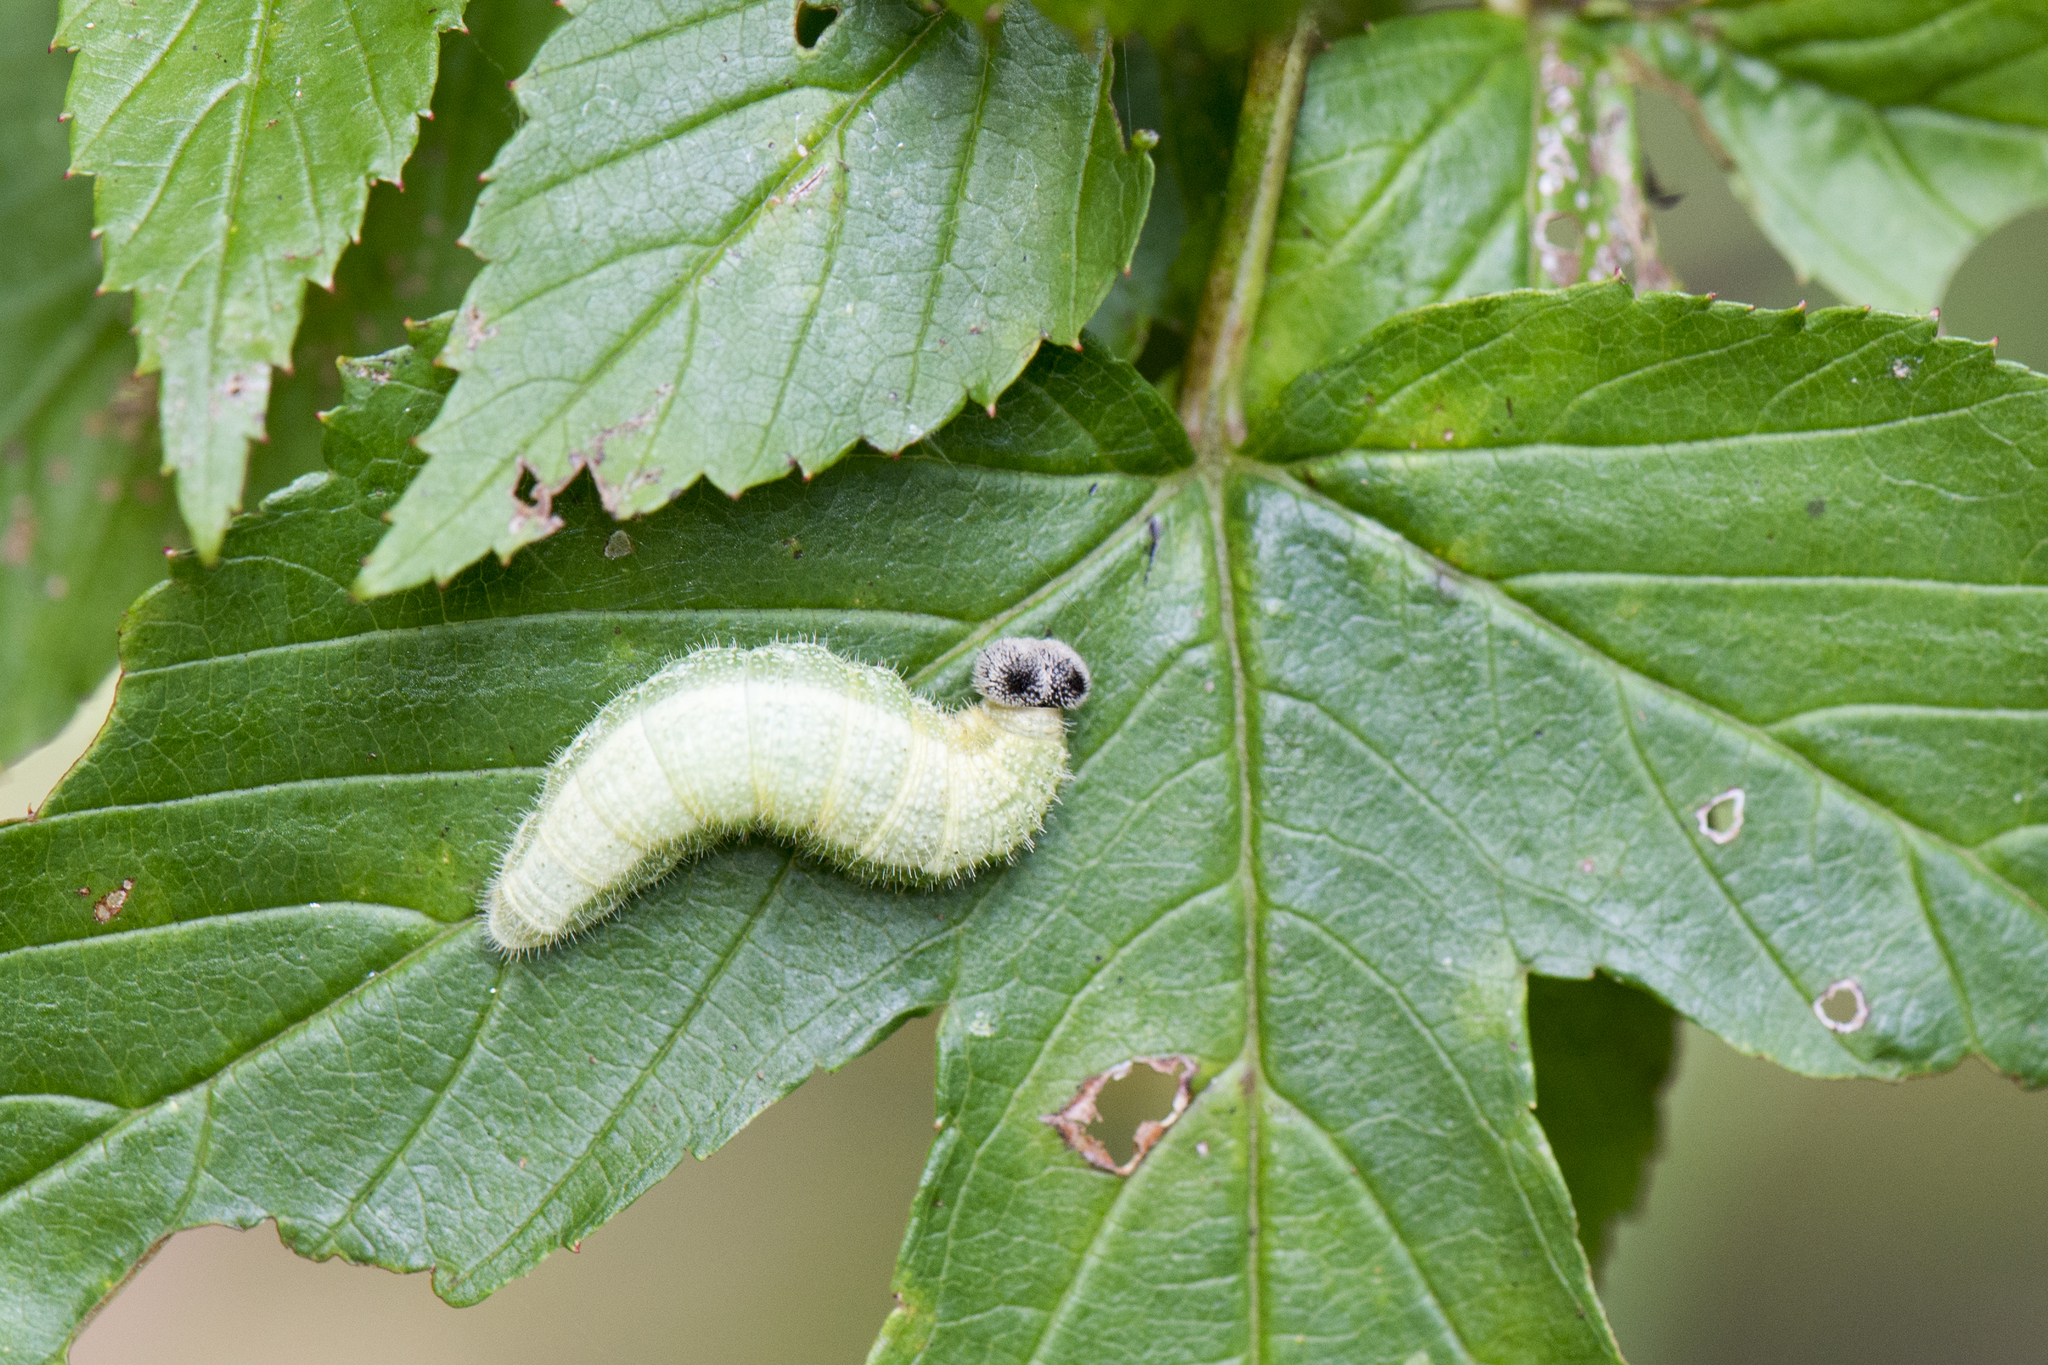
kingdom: Animalia
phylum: Arthropoda
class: Insecta
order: Lepidoptera
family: Hesperiidae
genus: Abraximorpha
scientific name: Abraximorpha davidii
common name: Magpie flat
